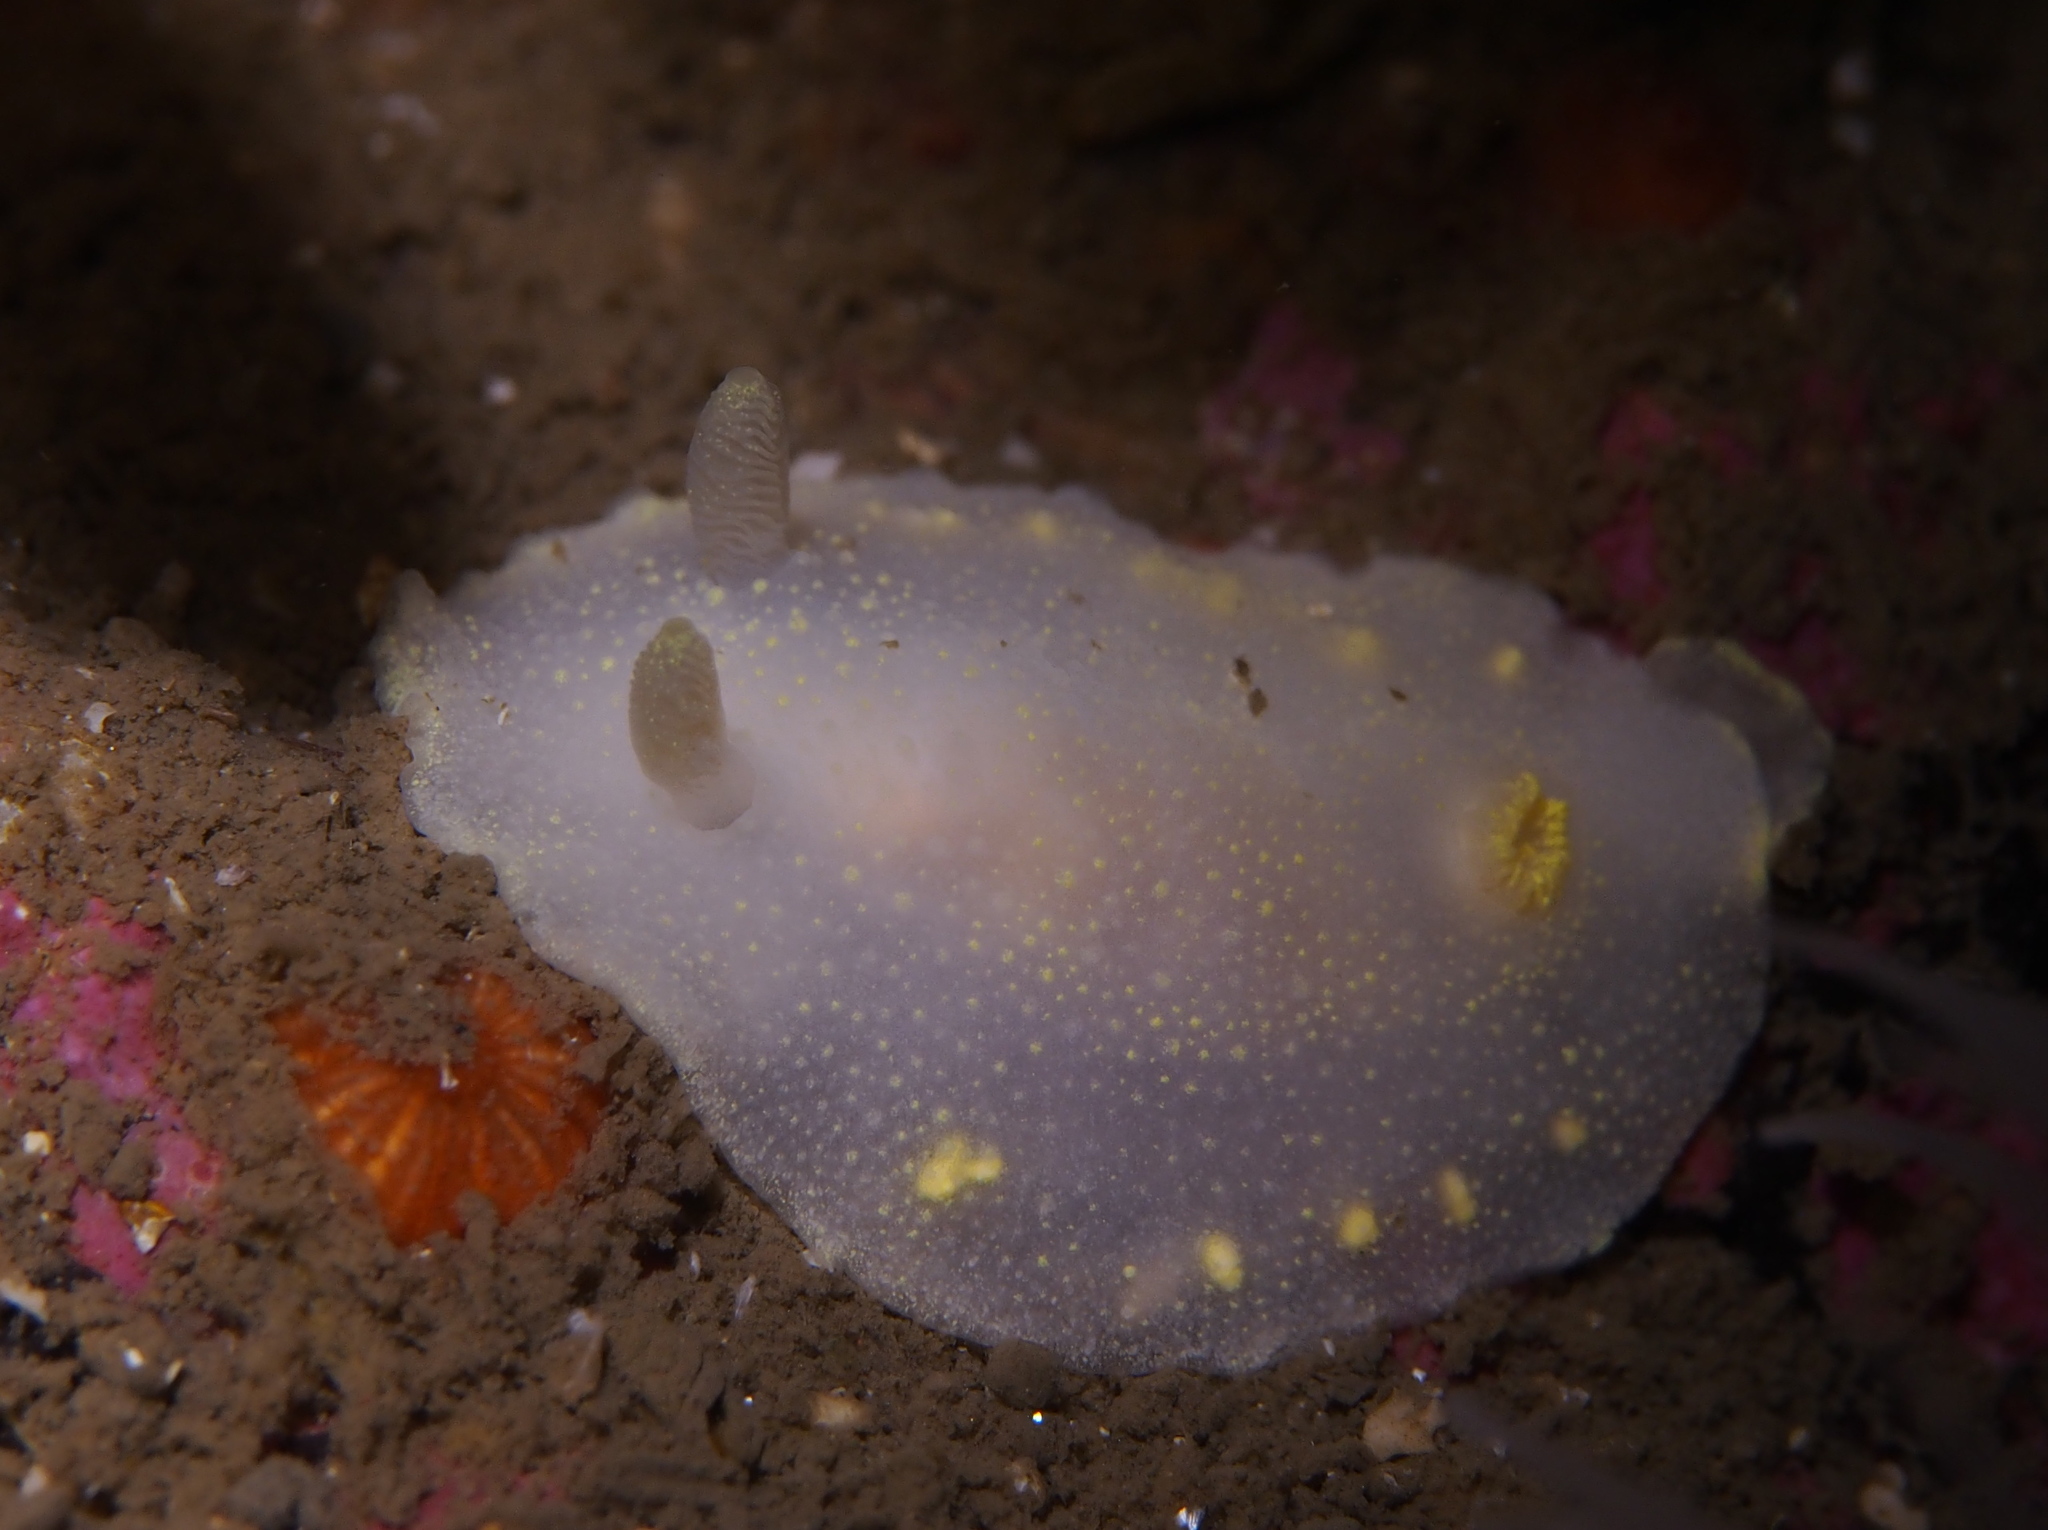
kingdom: Animalia
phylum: Mollusca
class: Gastropoda
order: Nudibranchia
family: Cadlinidae
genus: Cadlina
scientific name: Cadlina laevis
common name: White atlantic cadlina
